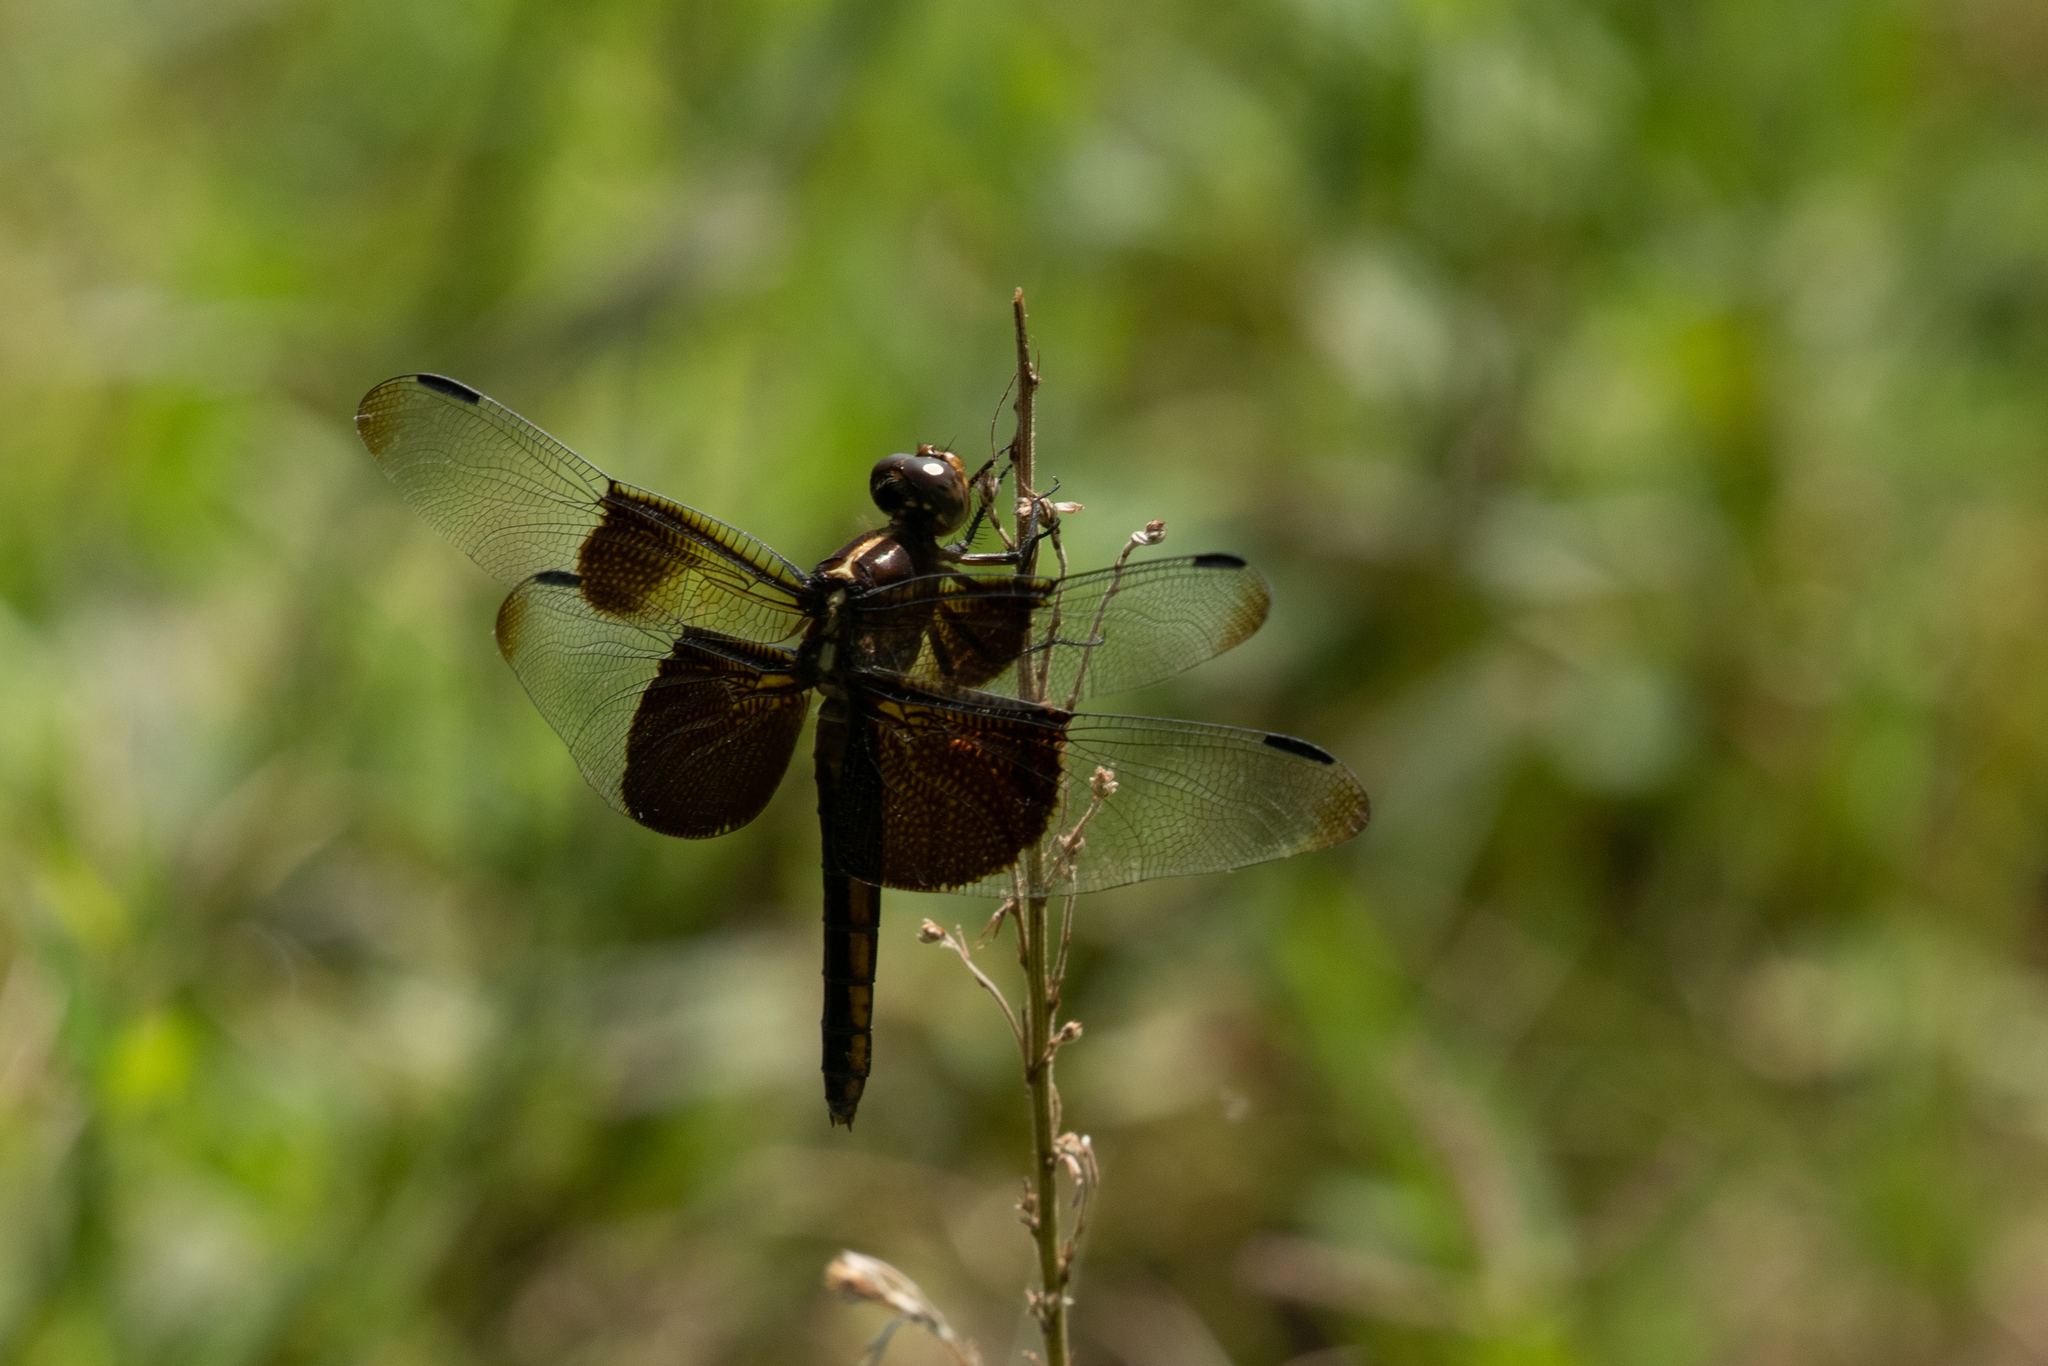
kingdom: Animalia
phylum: Arthropoda
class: Insecta
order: Odonata
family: Libellulidae
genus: Libellula
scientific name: Libellula luctuosa
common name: Widow skimmer
